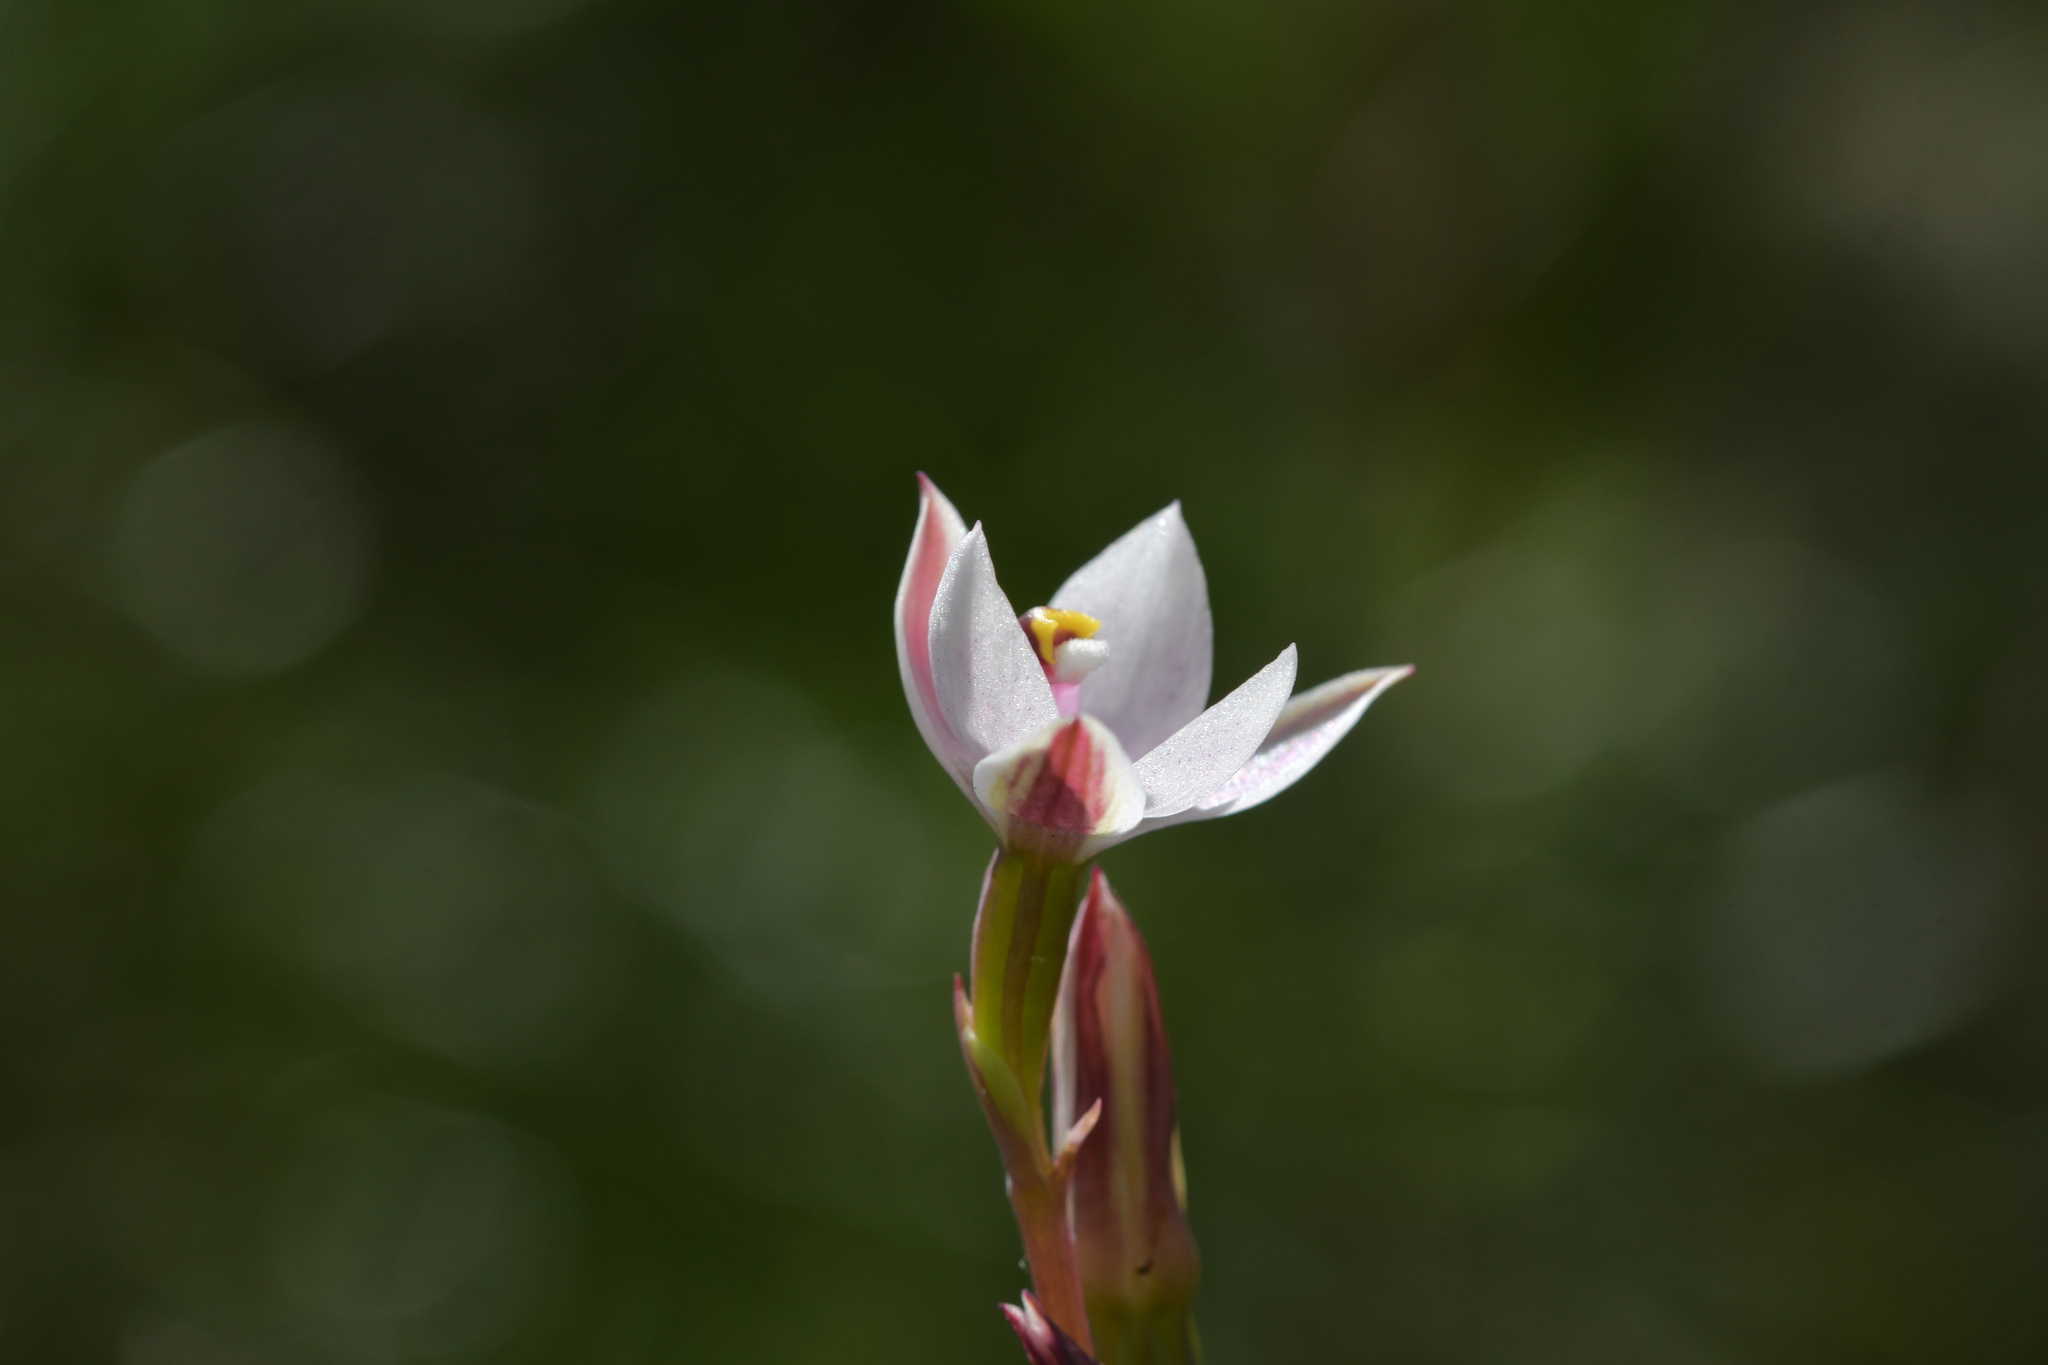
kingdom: Plantae
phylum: Tracheophyta
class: Liliopsida
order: Asparagales
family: Orchidaceae
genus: Thelymitra
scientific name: Thelymitra longifolia
